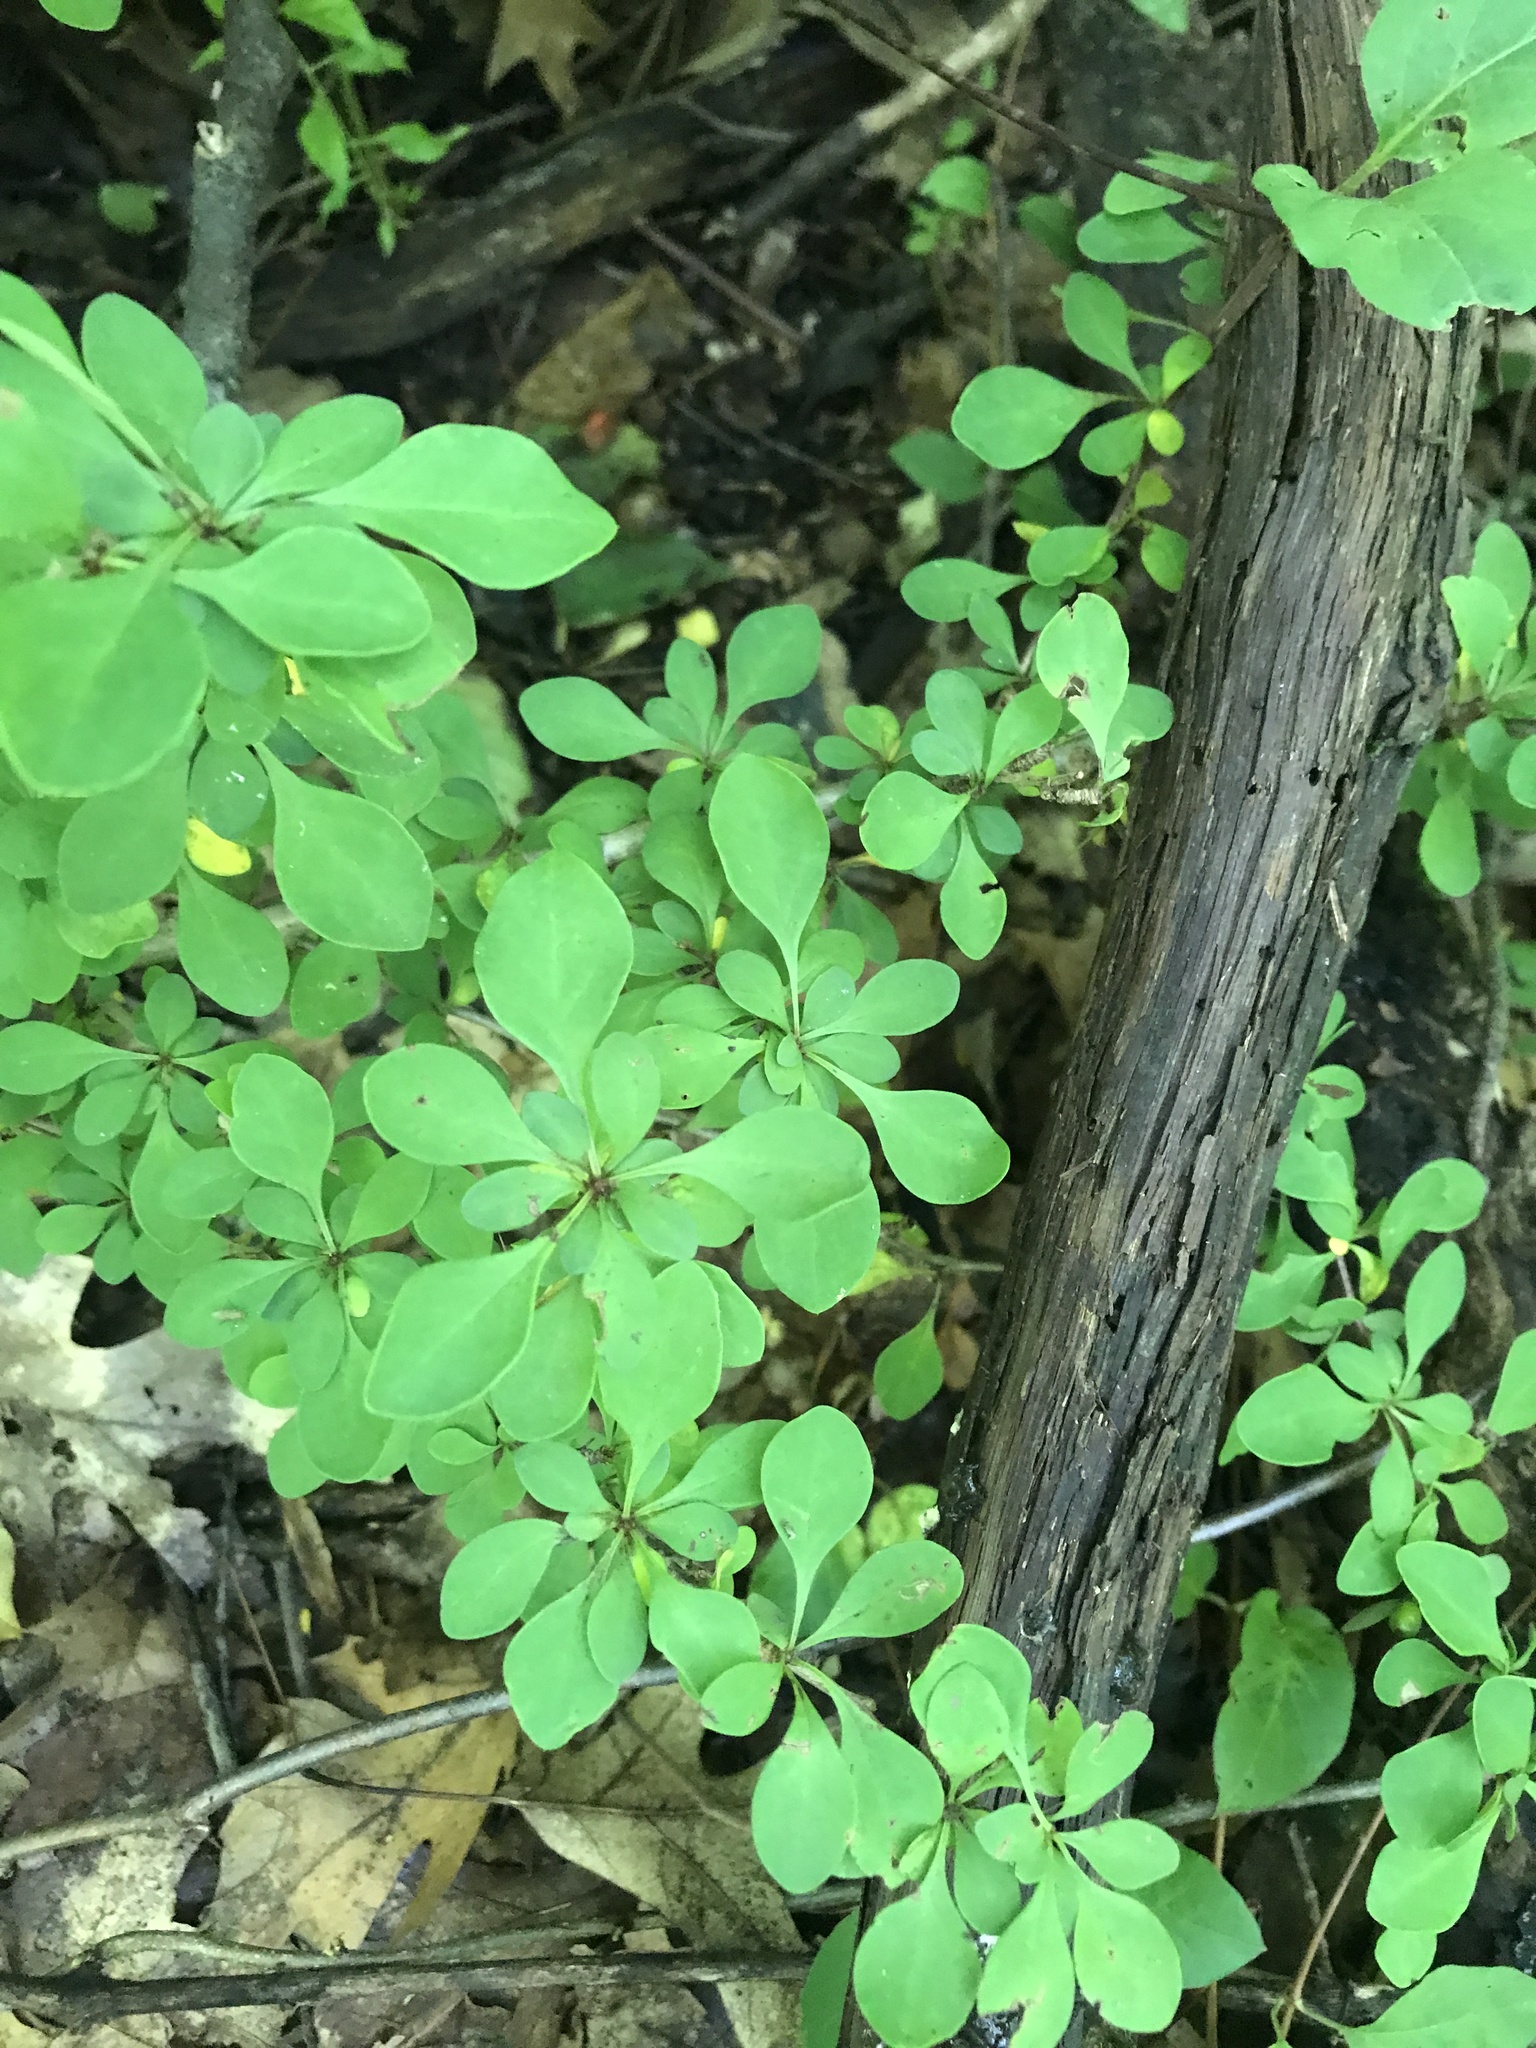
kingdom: Plantae
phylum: Tracheophyta
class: Magnoliopsida
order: Ranunculales
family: Berberidaceae
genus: Berberis
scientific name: Berberis thunbergii
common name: Japanese barberry
